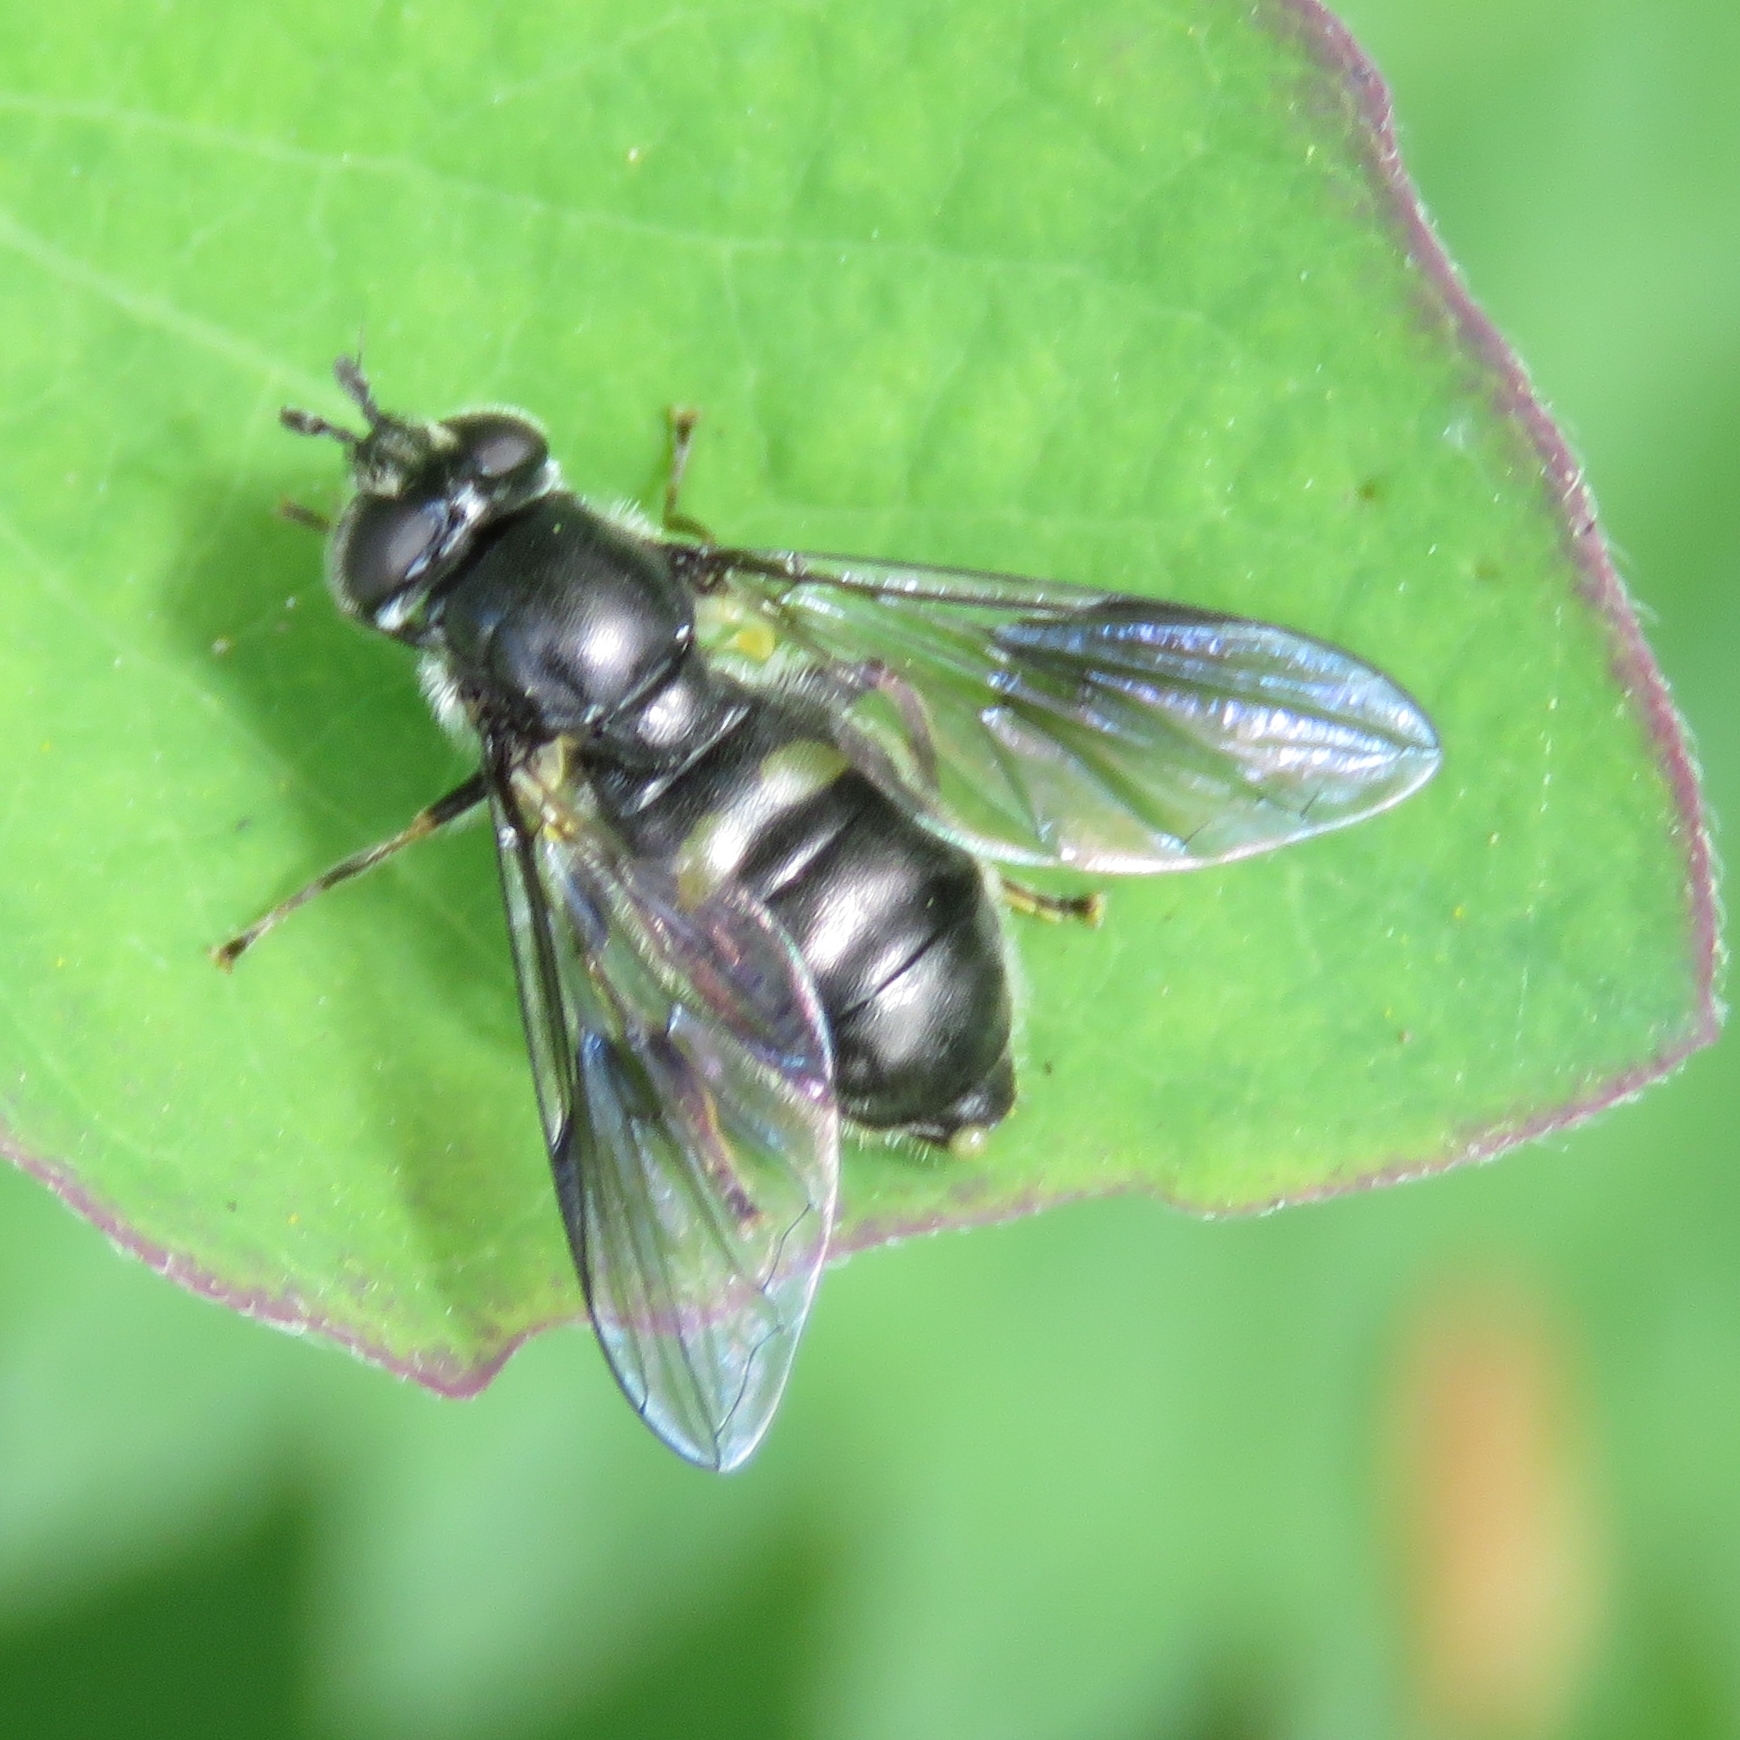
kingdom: Animalia
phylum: Arthropoda
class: Insecta
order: Diptera
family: Syrphidae
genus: Pipiza
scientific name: Pipiza
